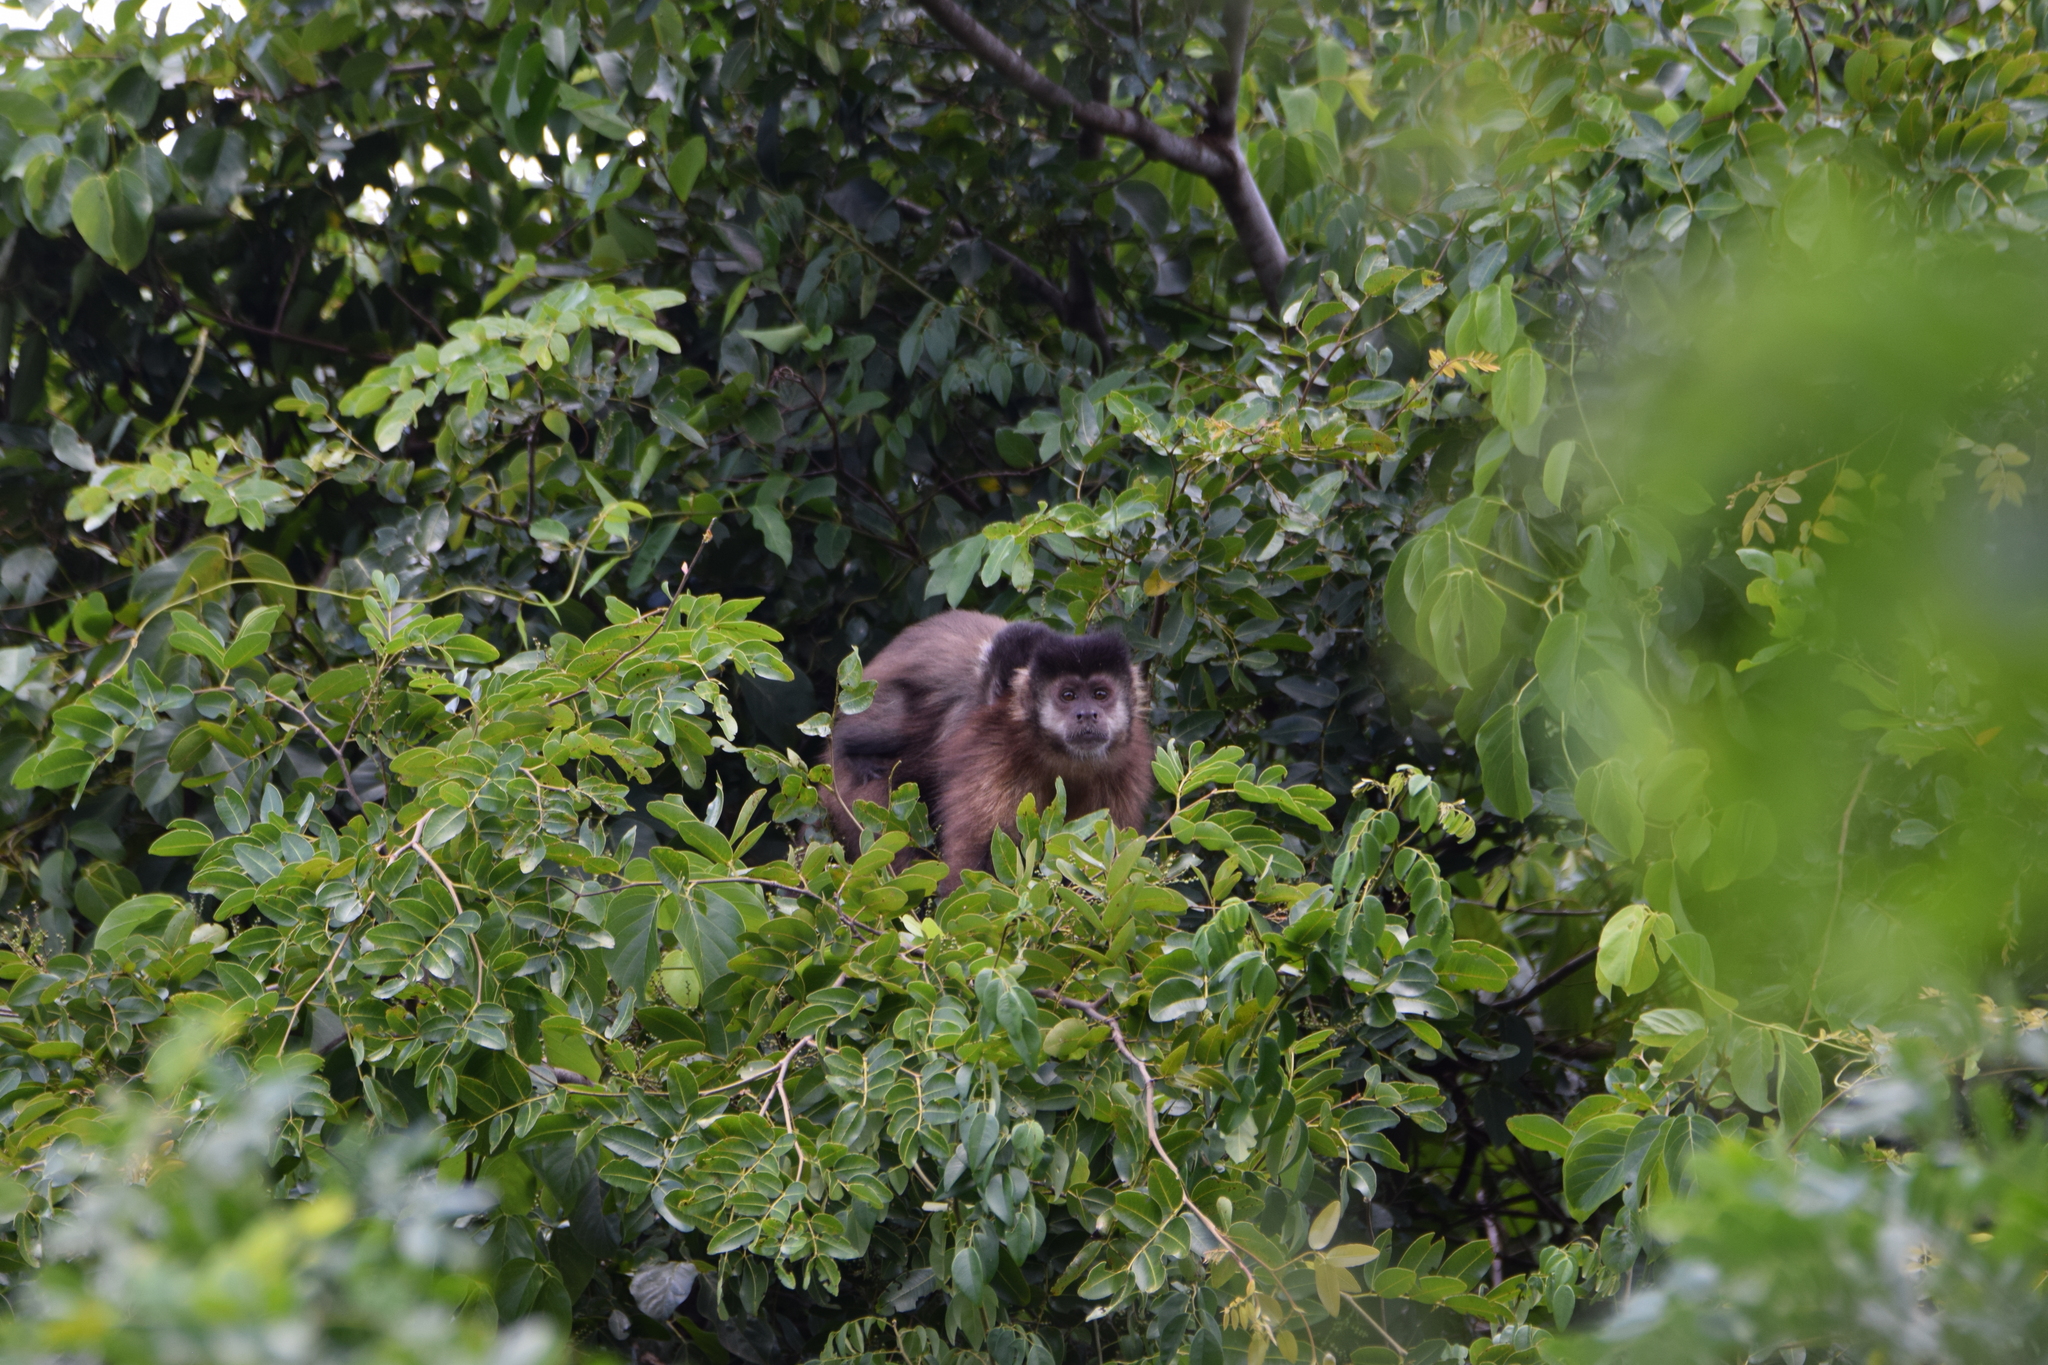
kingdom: Animalia
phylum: Chordata
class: Mammalia
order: Primates
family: Cebidae
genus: Sapajus
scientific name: Sapajus nigritus
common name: Black capuchin
